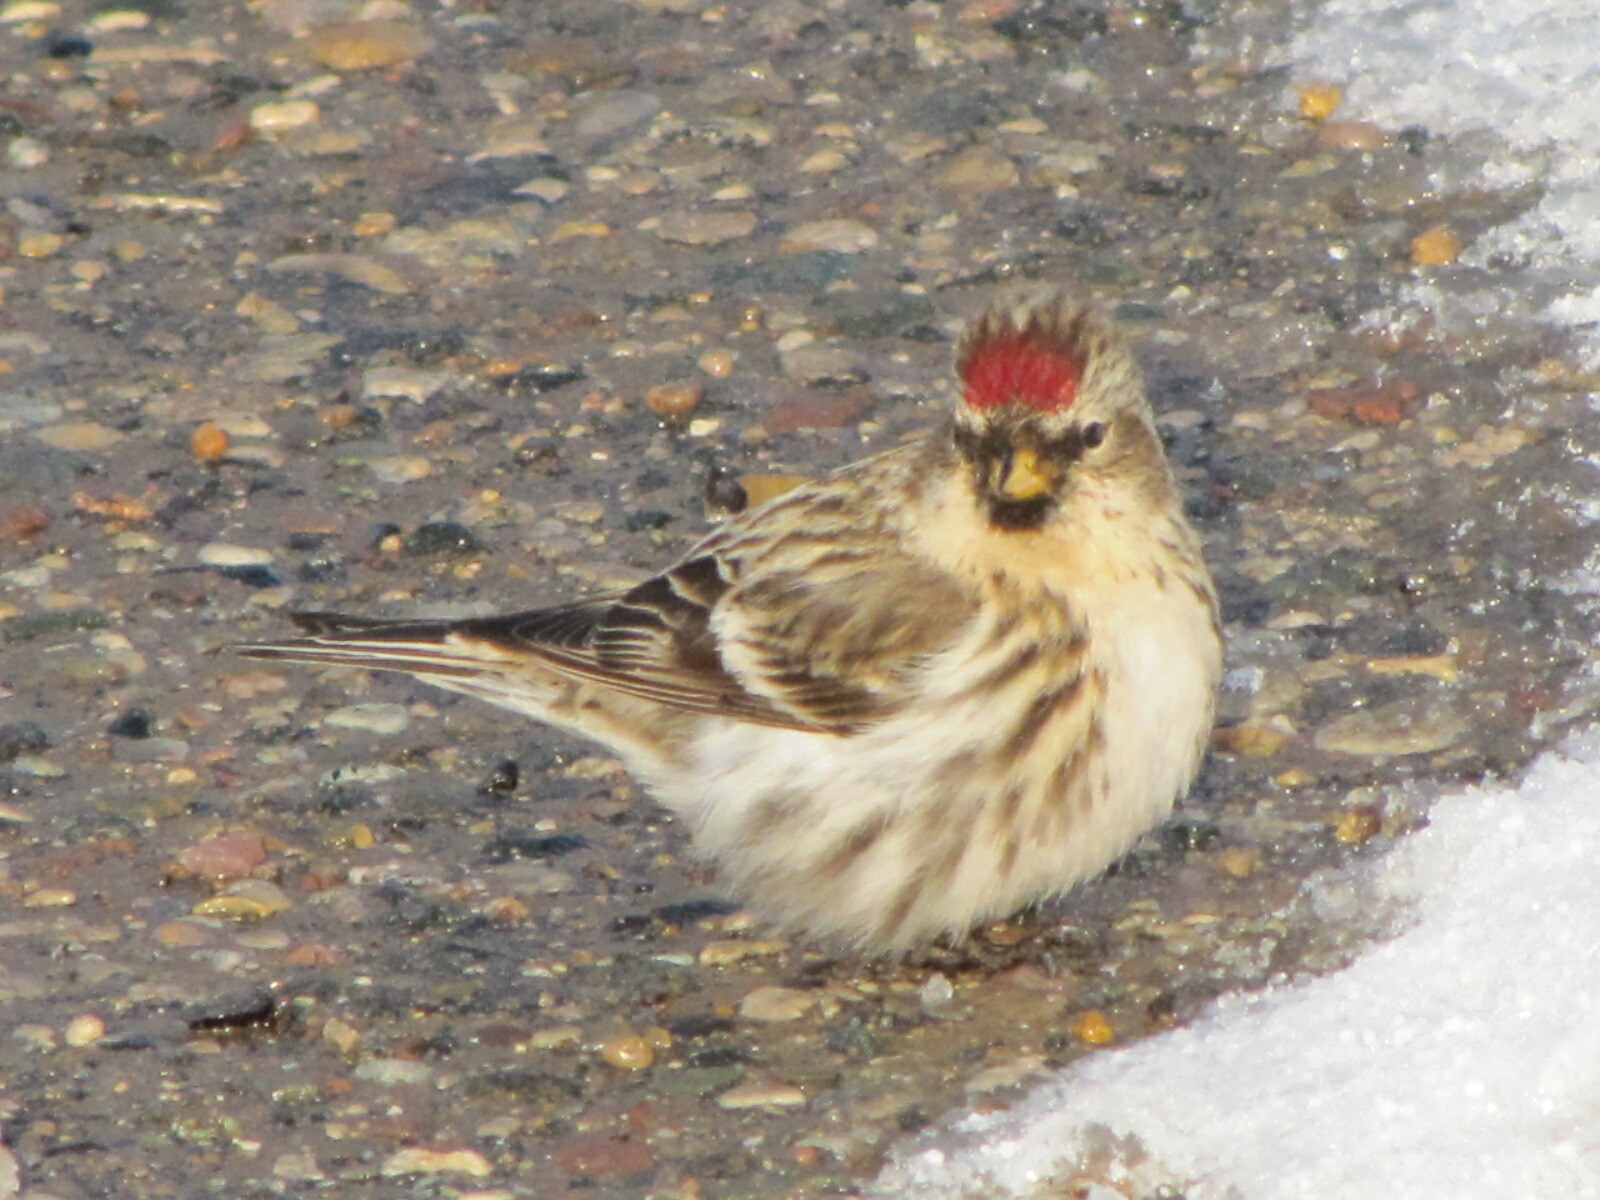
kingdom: Animalia
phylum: Chordata
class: Aves
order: Passeriformes
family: Fringillidae
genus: Acanthis
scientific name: Acanthis flammea
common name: Common redpoll
